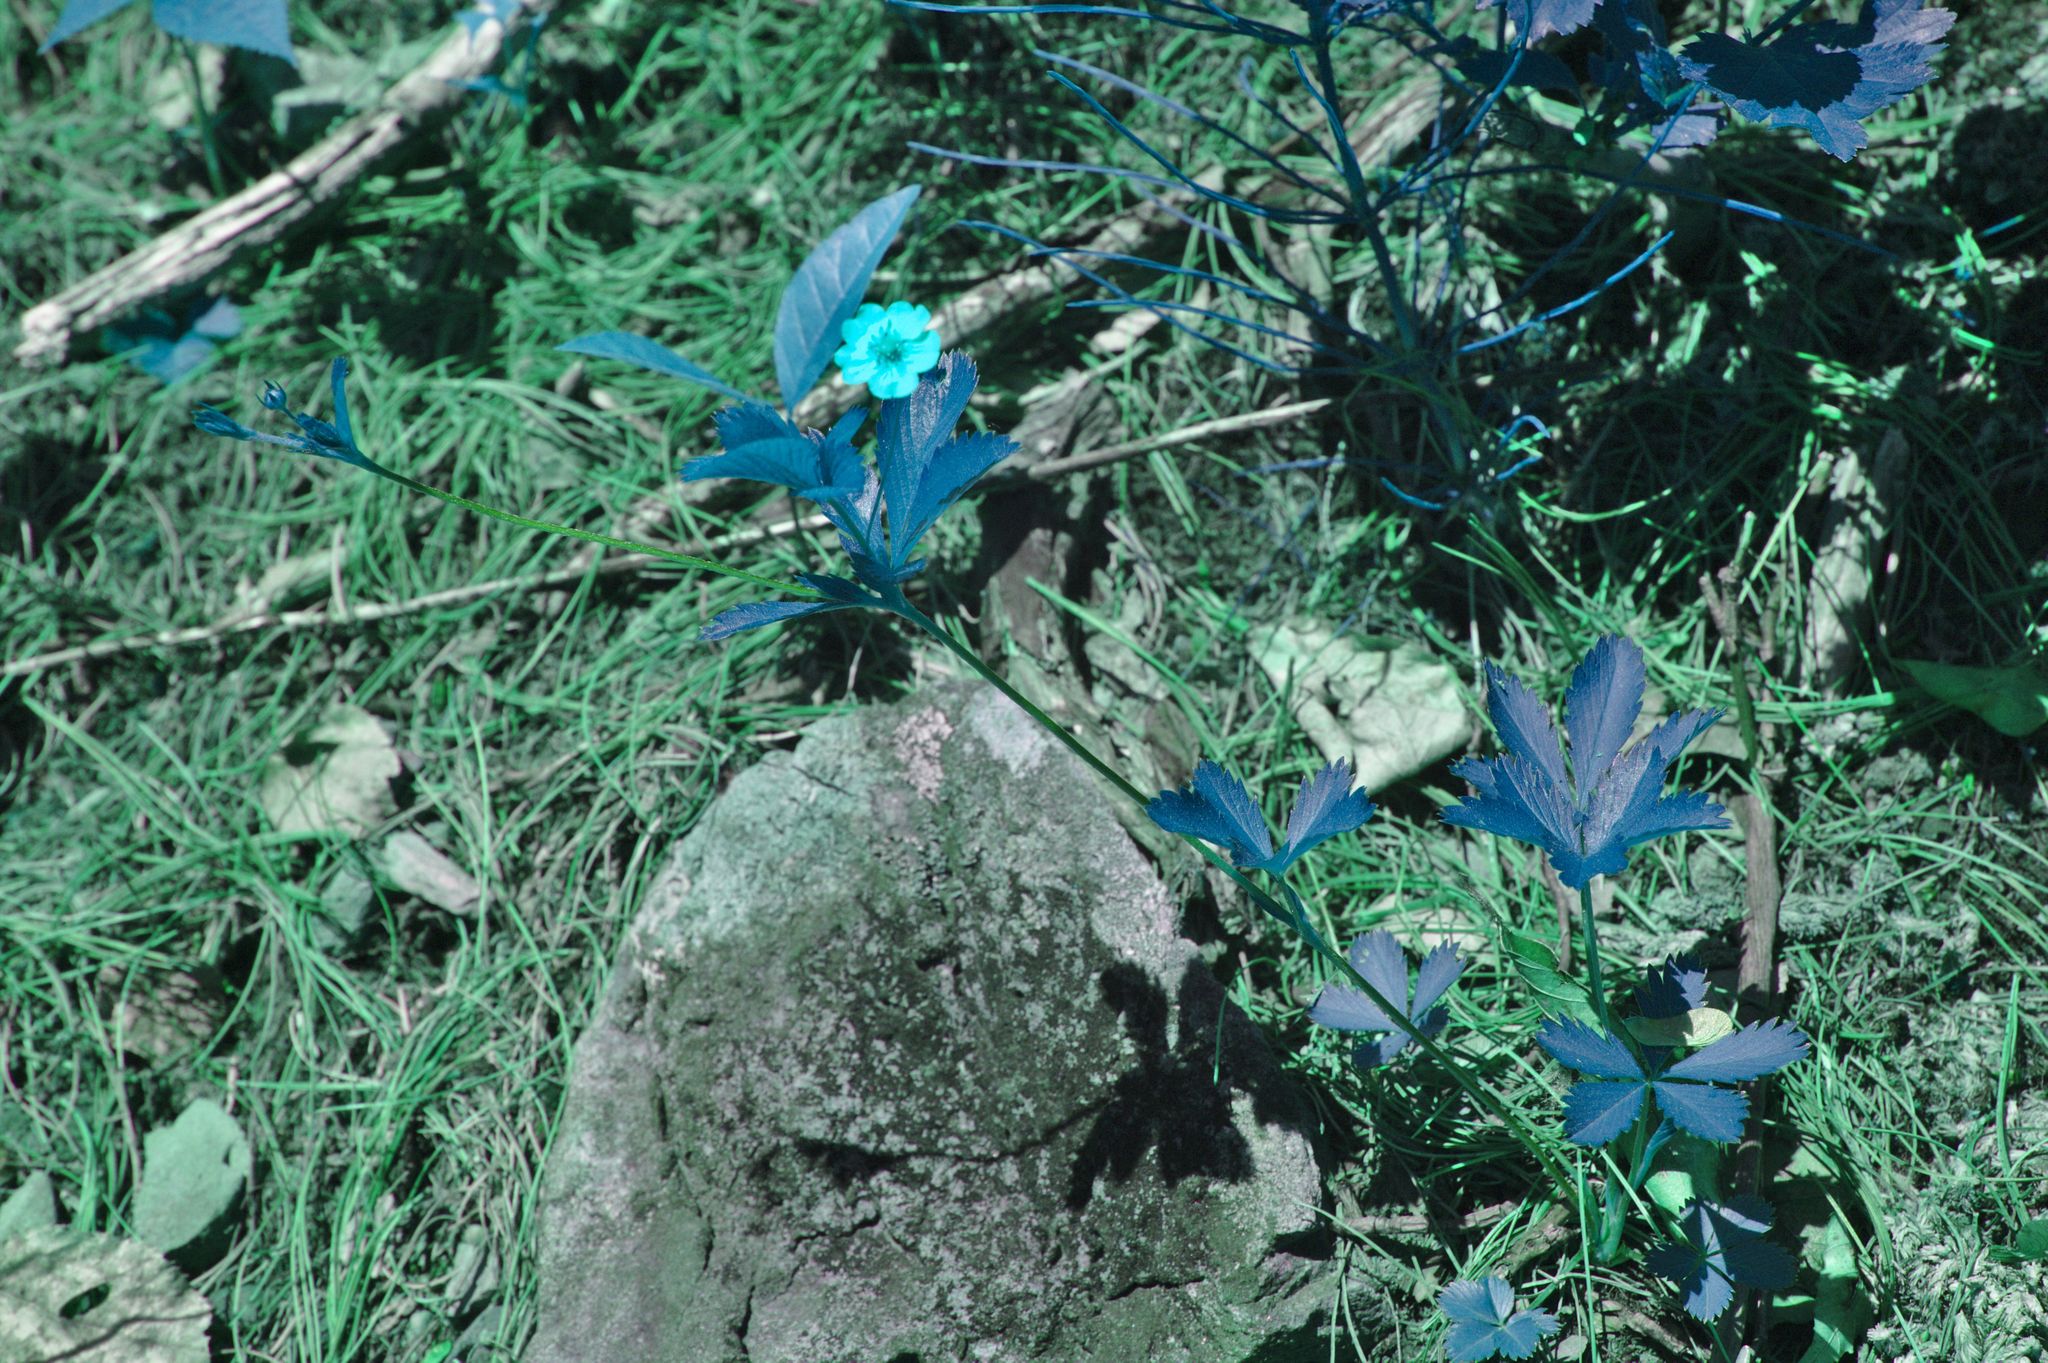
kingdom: Plantae
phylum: Tracheophyta
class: Magnoliopsida
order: Rosales
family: Rosaceae
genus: Potentilla
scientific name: Potentilla simplex
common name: Old field cinquefoil
